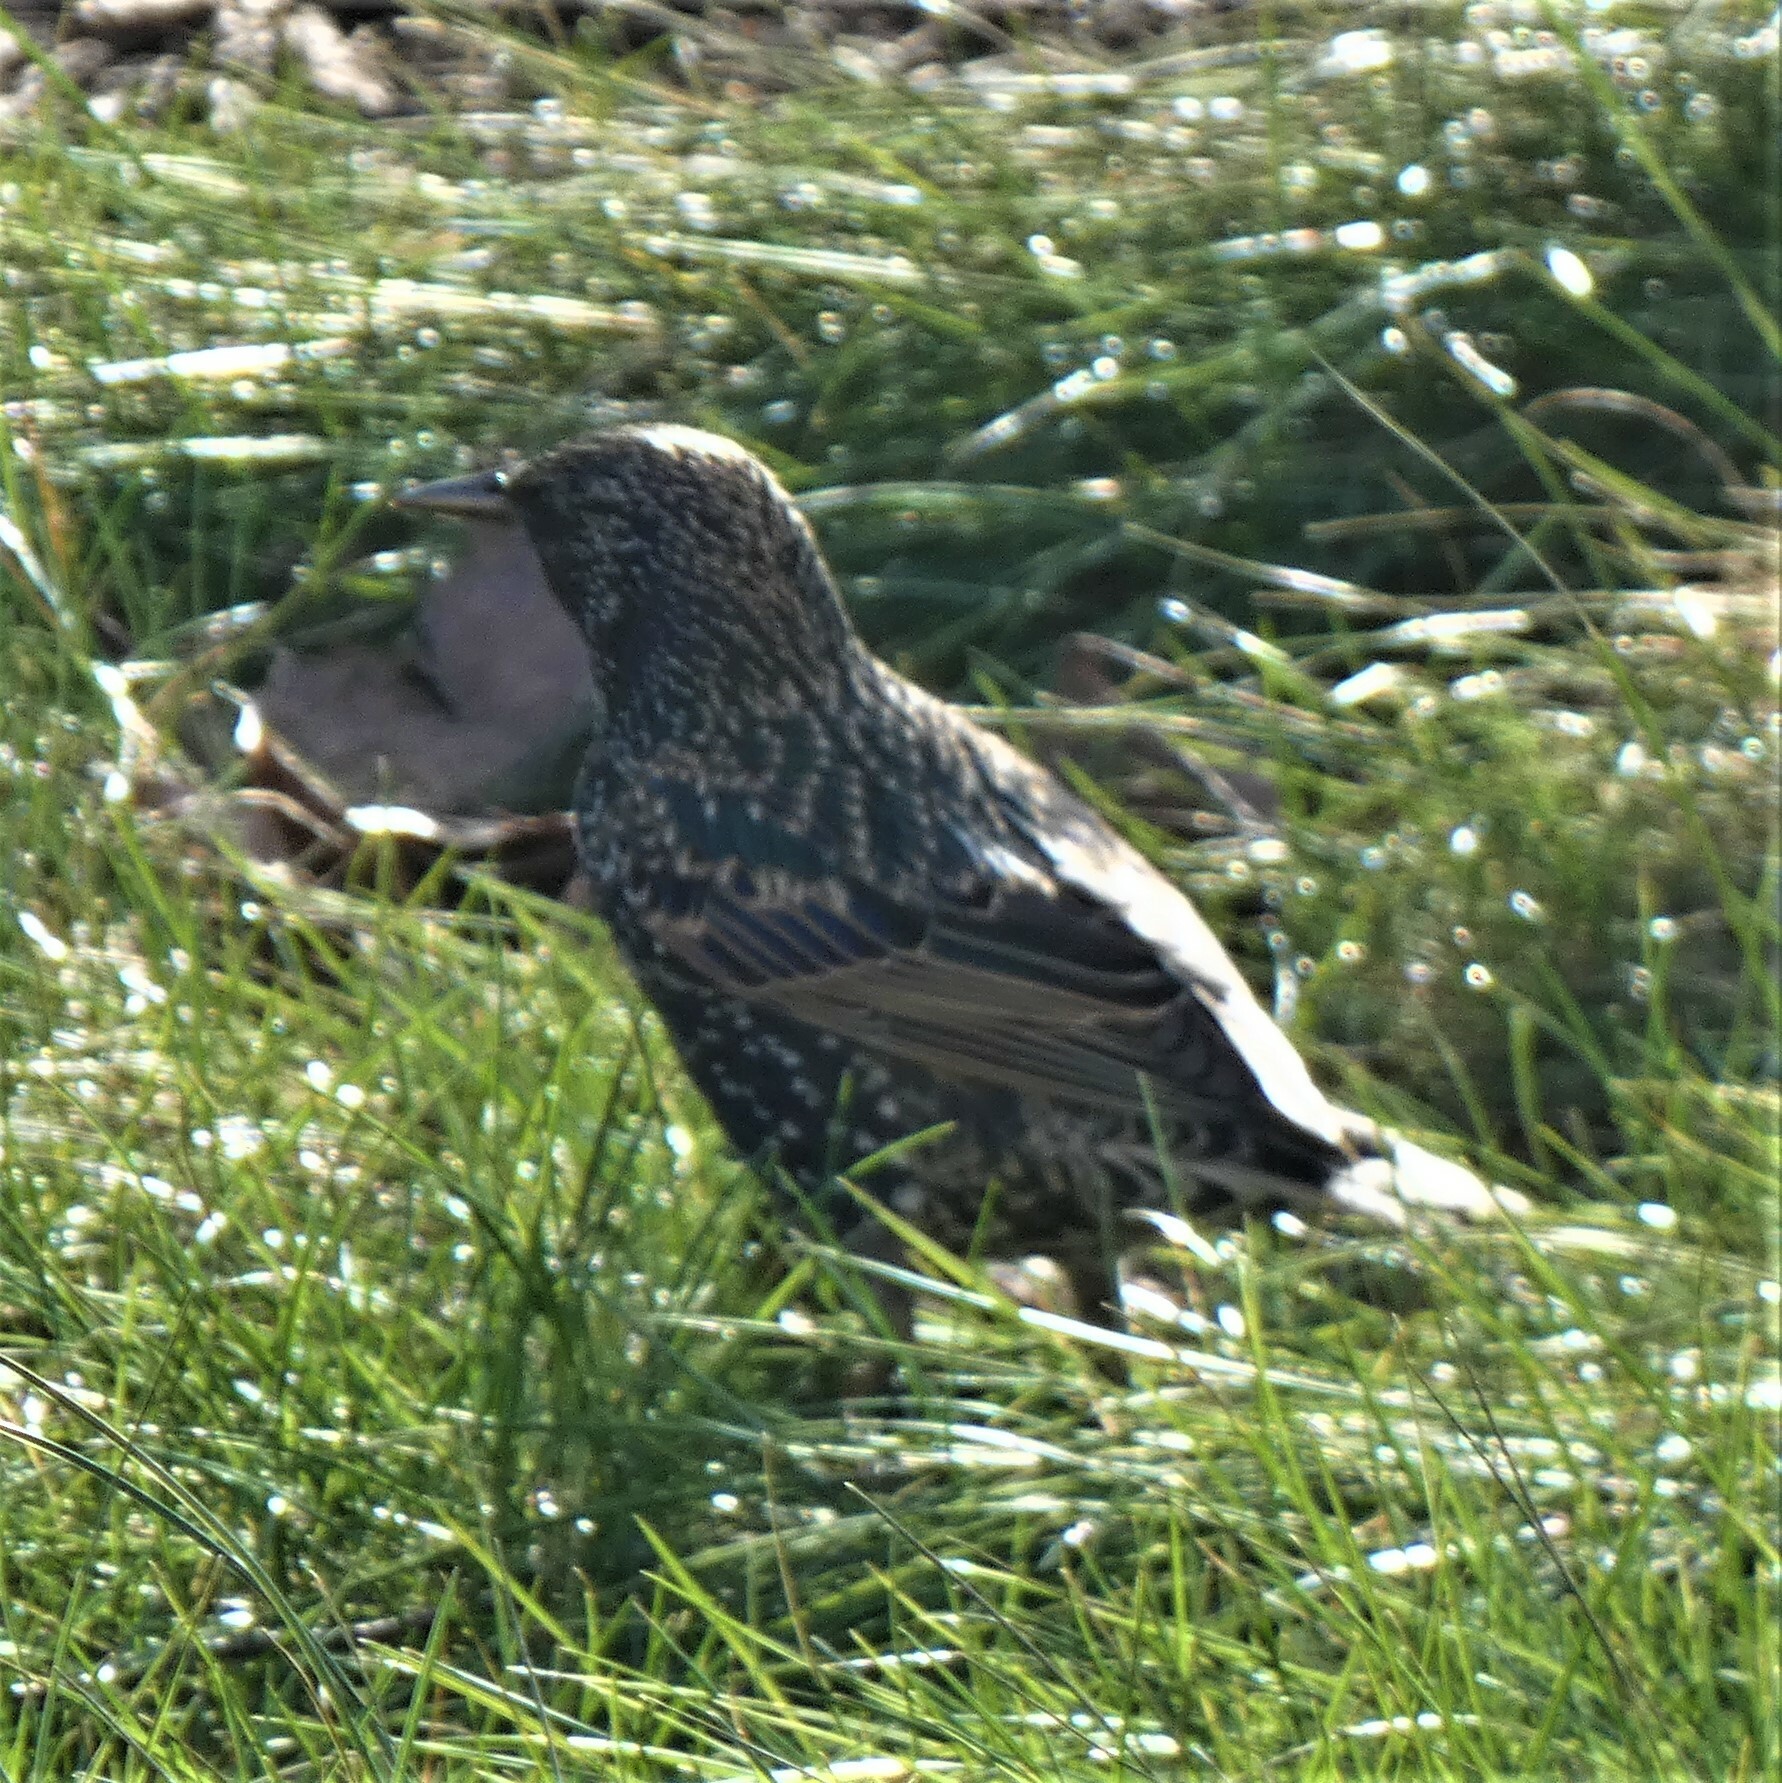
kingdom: Animalia
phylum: Chordata
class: Aves
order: Passeriformes
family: Sturnidae
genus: Sturnus
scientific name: Sturnus vulgaris
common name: Common starling
